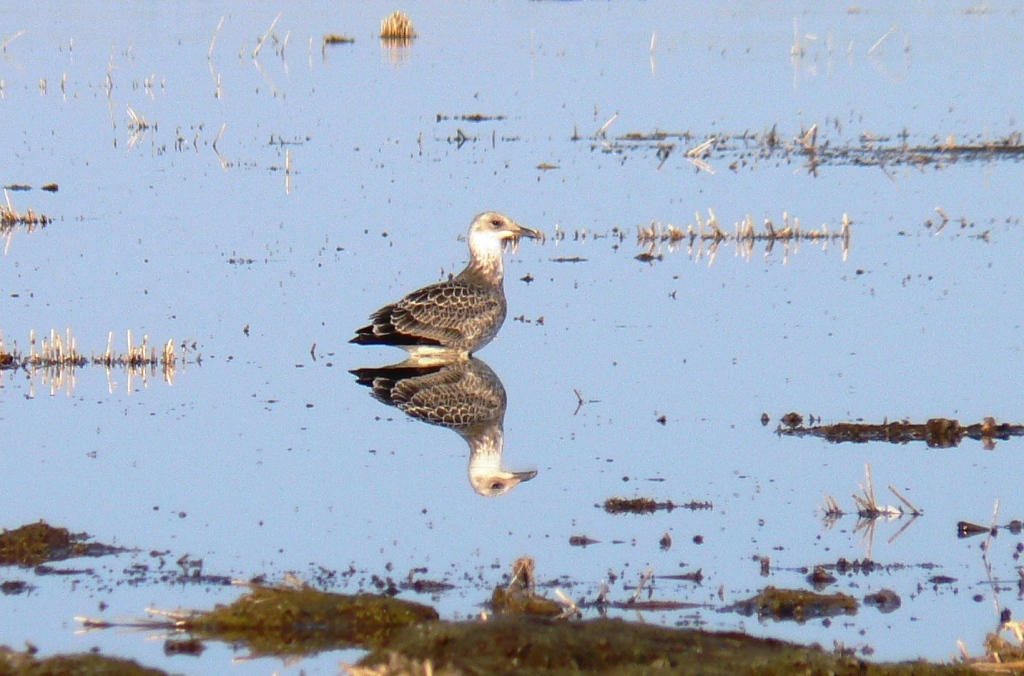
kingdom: Animalia
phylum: Chordata
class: Aves
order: Charadriiformes
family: Laridae
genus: Larus
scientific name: Larus fuscus
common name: Lesser black-backed gull
